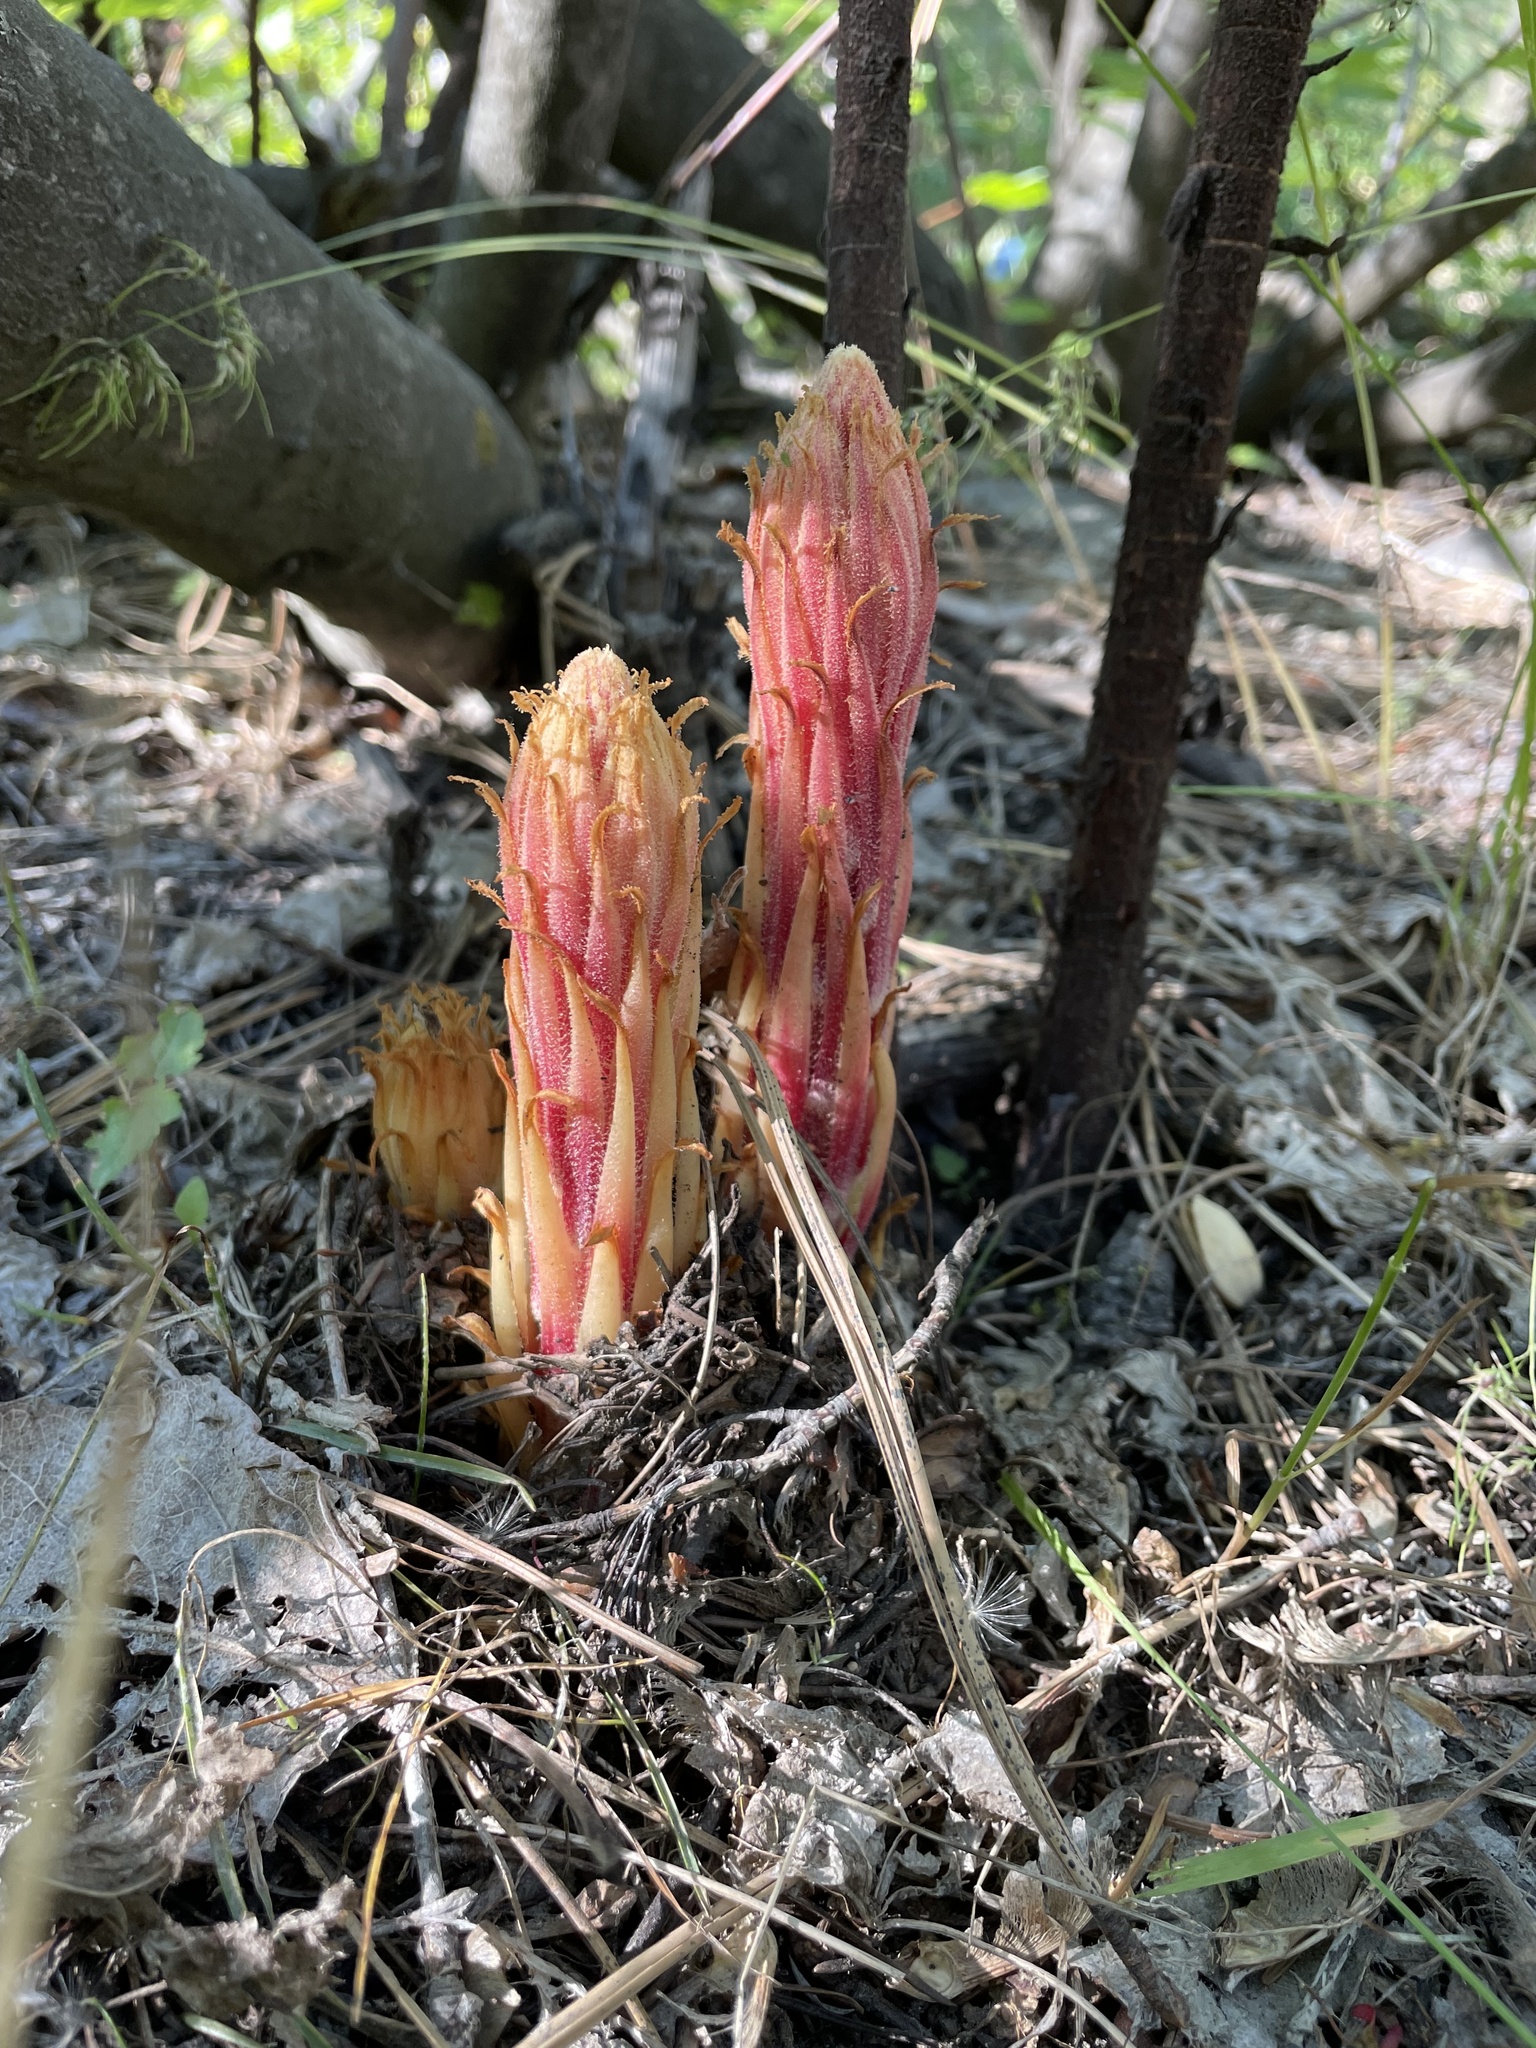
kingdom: Plantae
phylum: Tracheophyta
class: Magnoliopsida
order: Ericales
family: Ericaceae
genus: Pterospora
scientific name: Pterospora andromedea
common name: Giant bird's-nest
